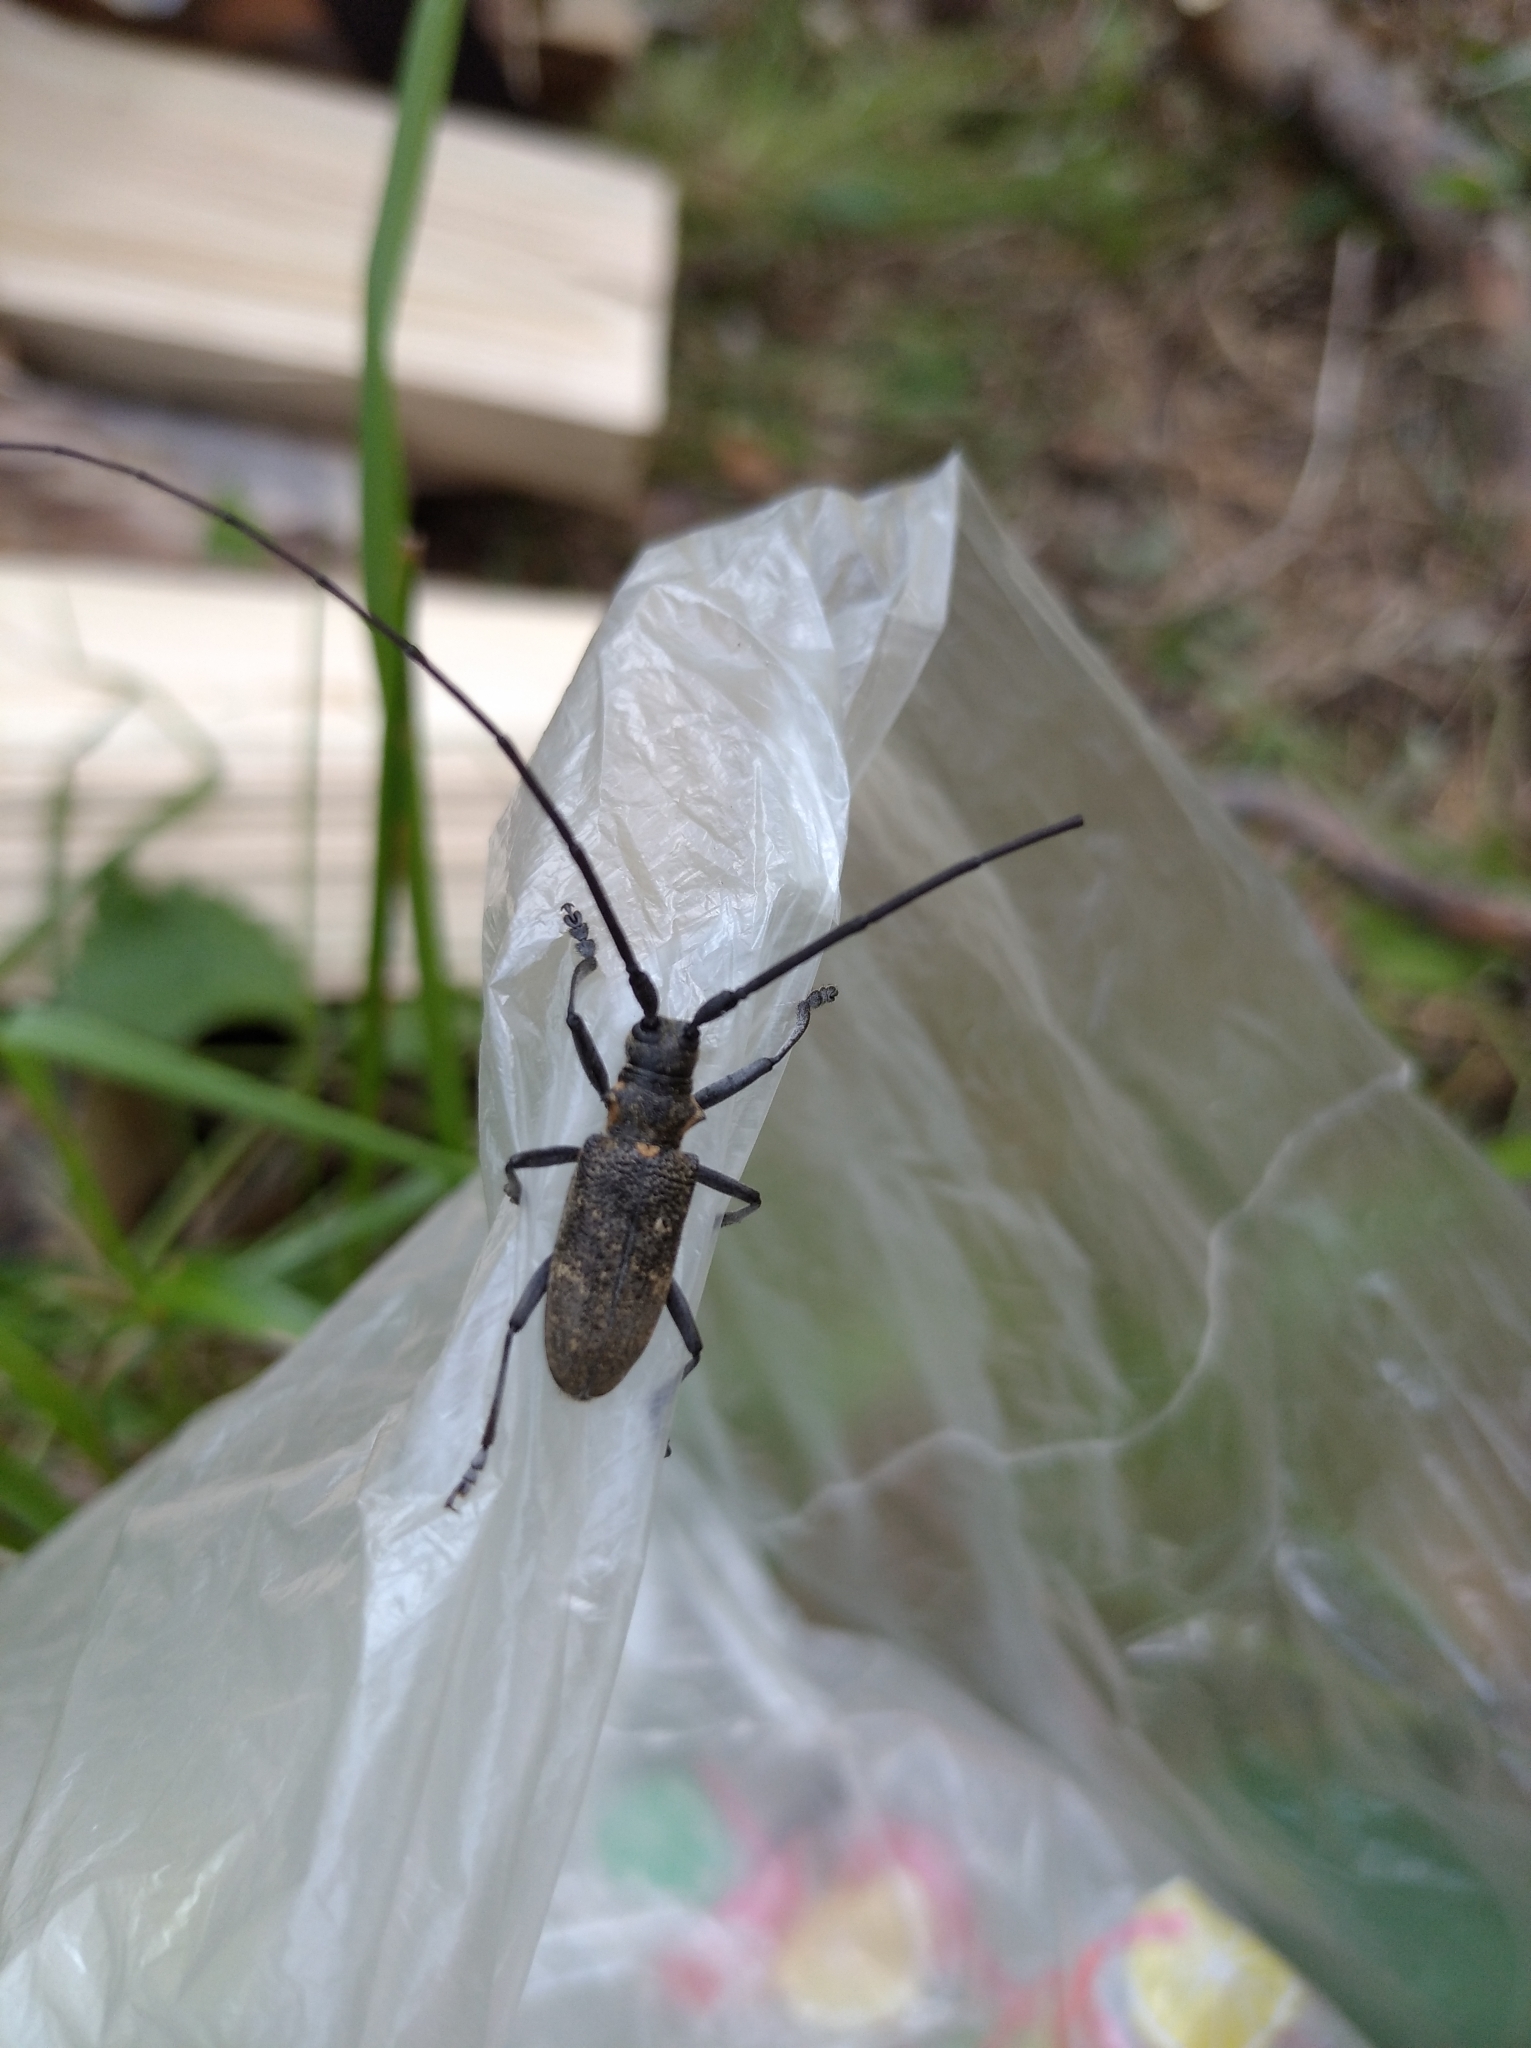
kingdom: Animalia
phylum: Arthropoda
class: Insecta
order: Coleoptera
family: Cerambycidae
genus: Monochamus
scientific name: Monochamus galloprovincialis
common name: Pine sawyer
